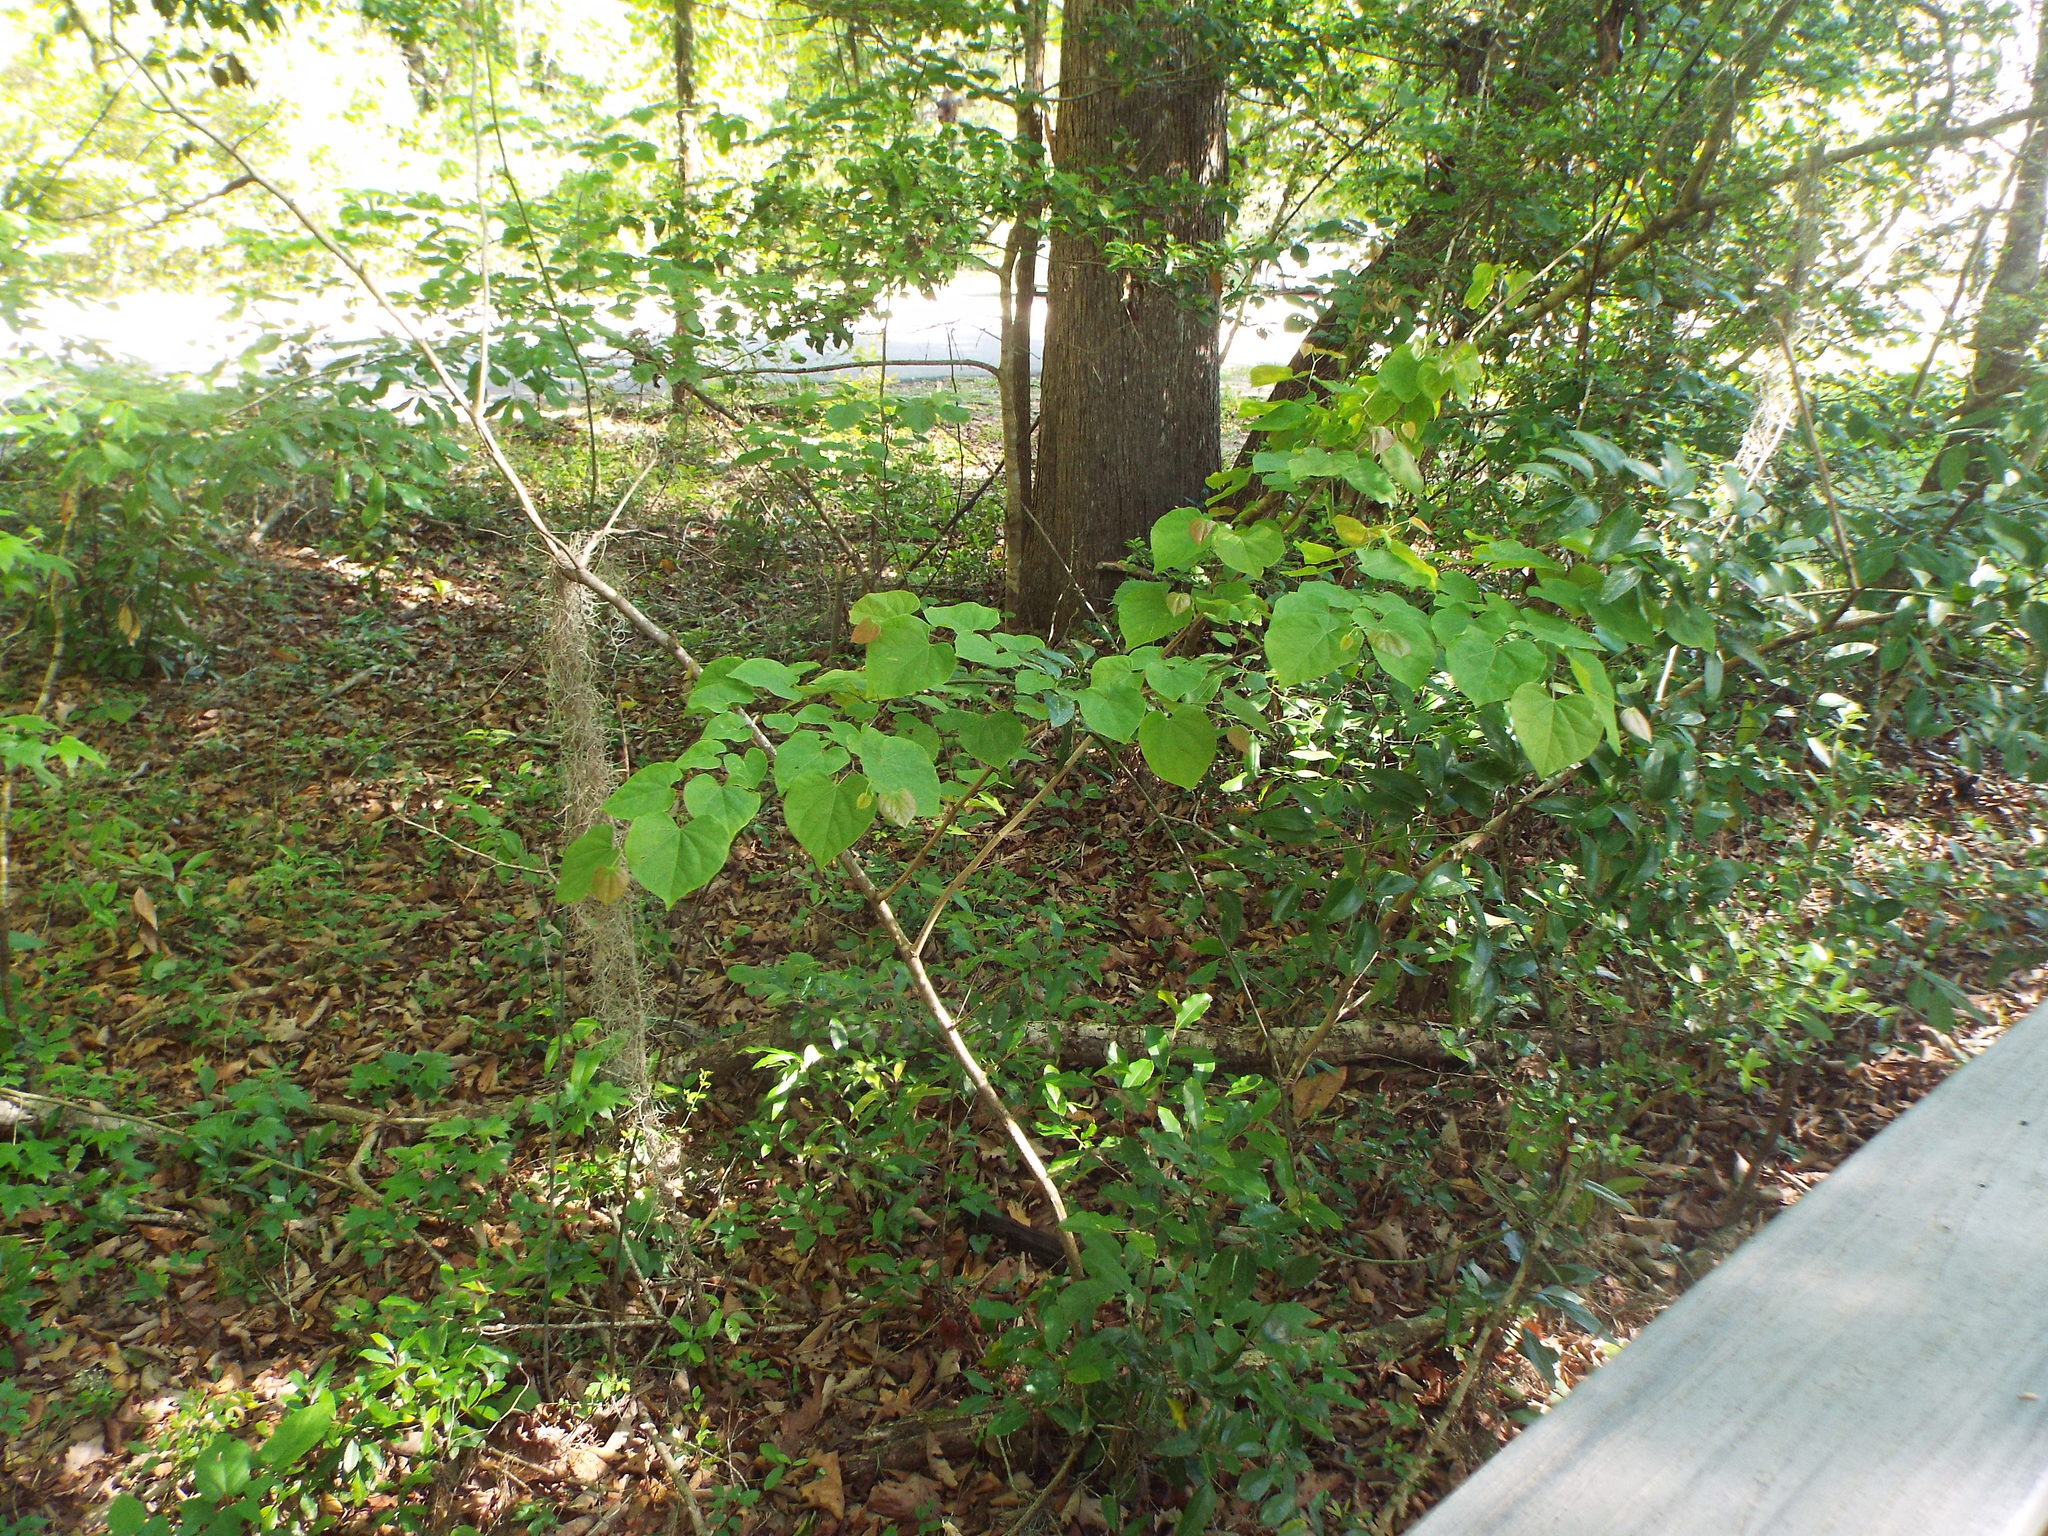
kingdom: Plantae
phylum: Tracheophyta
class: Magnoliopsida
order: Fabales
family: Fabaceae
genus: Cercis
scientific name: Cercis canadensis
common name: Eastern redbud
